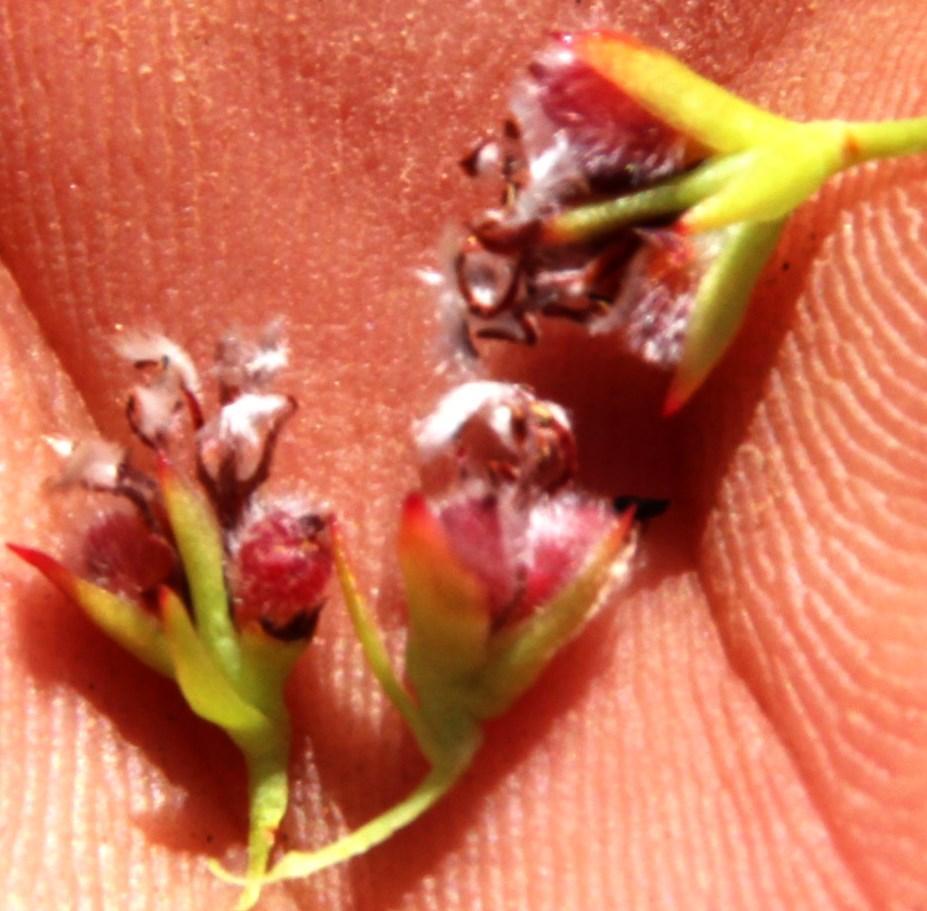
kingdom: Plantae
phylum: Tracheophyta
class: Magnoliopsida
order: Proteales
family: Proteaceae
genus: Spatalla
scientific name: Spatalla confusa
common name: Long-tube spoon
